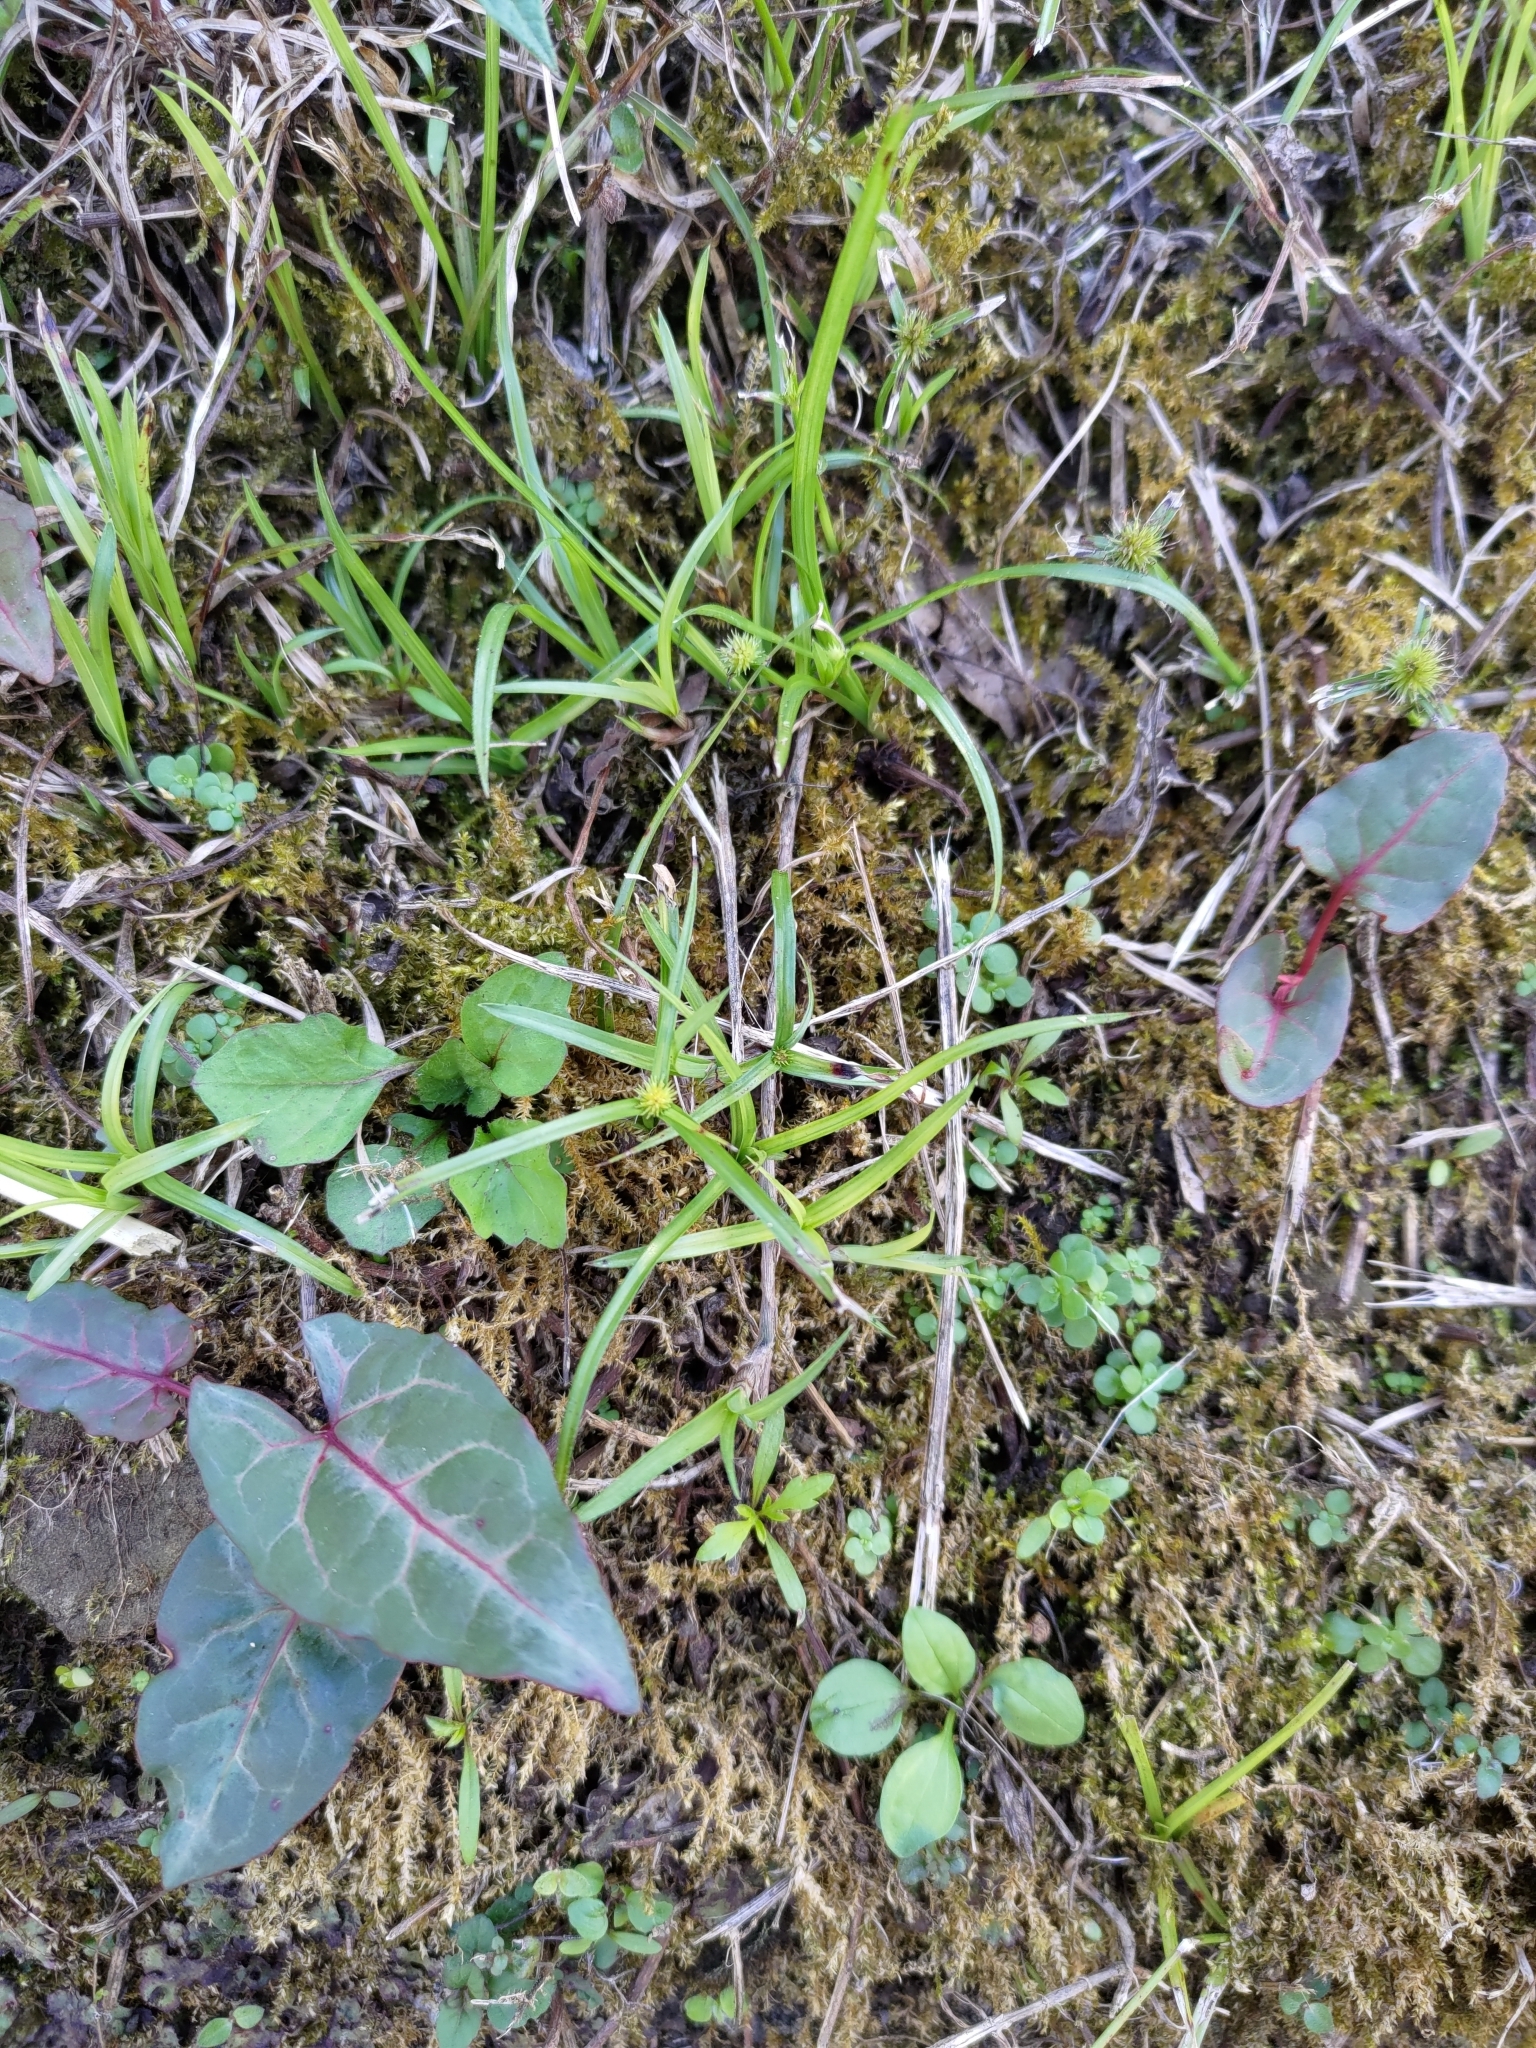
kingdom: Plantae
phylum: Tracheophyta
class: Magnoliopsida
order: Caryophyllales
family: Polygonaceae
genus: Reynoutria
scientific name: Reynoutria multiflora
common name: Chinese fleeceflower
